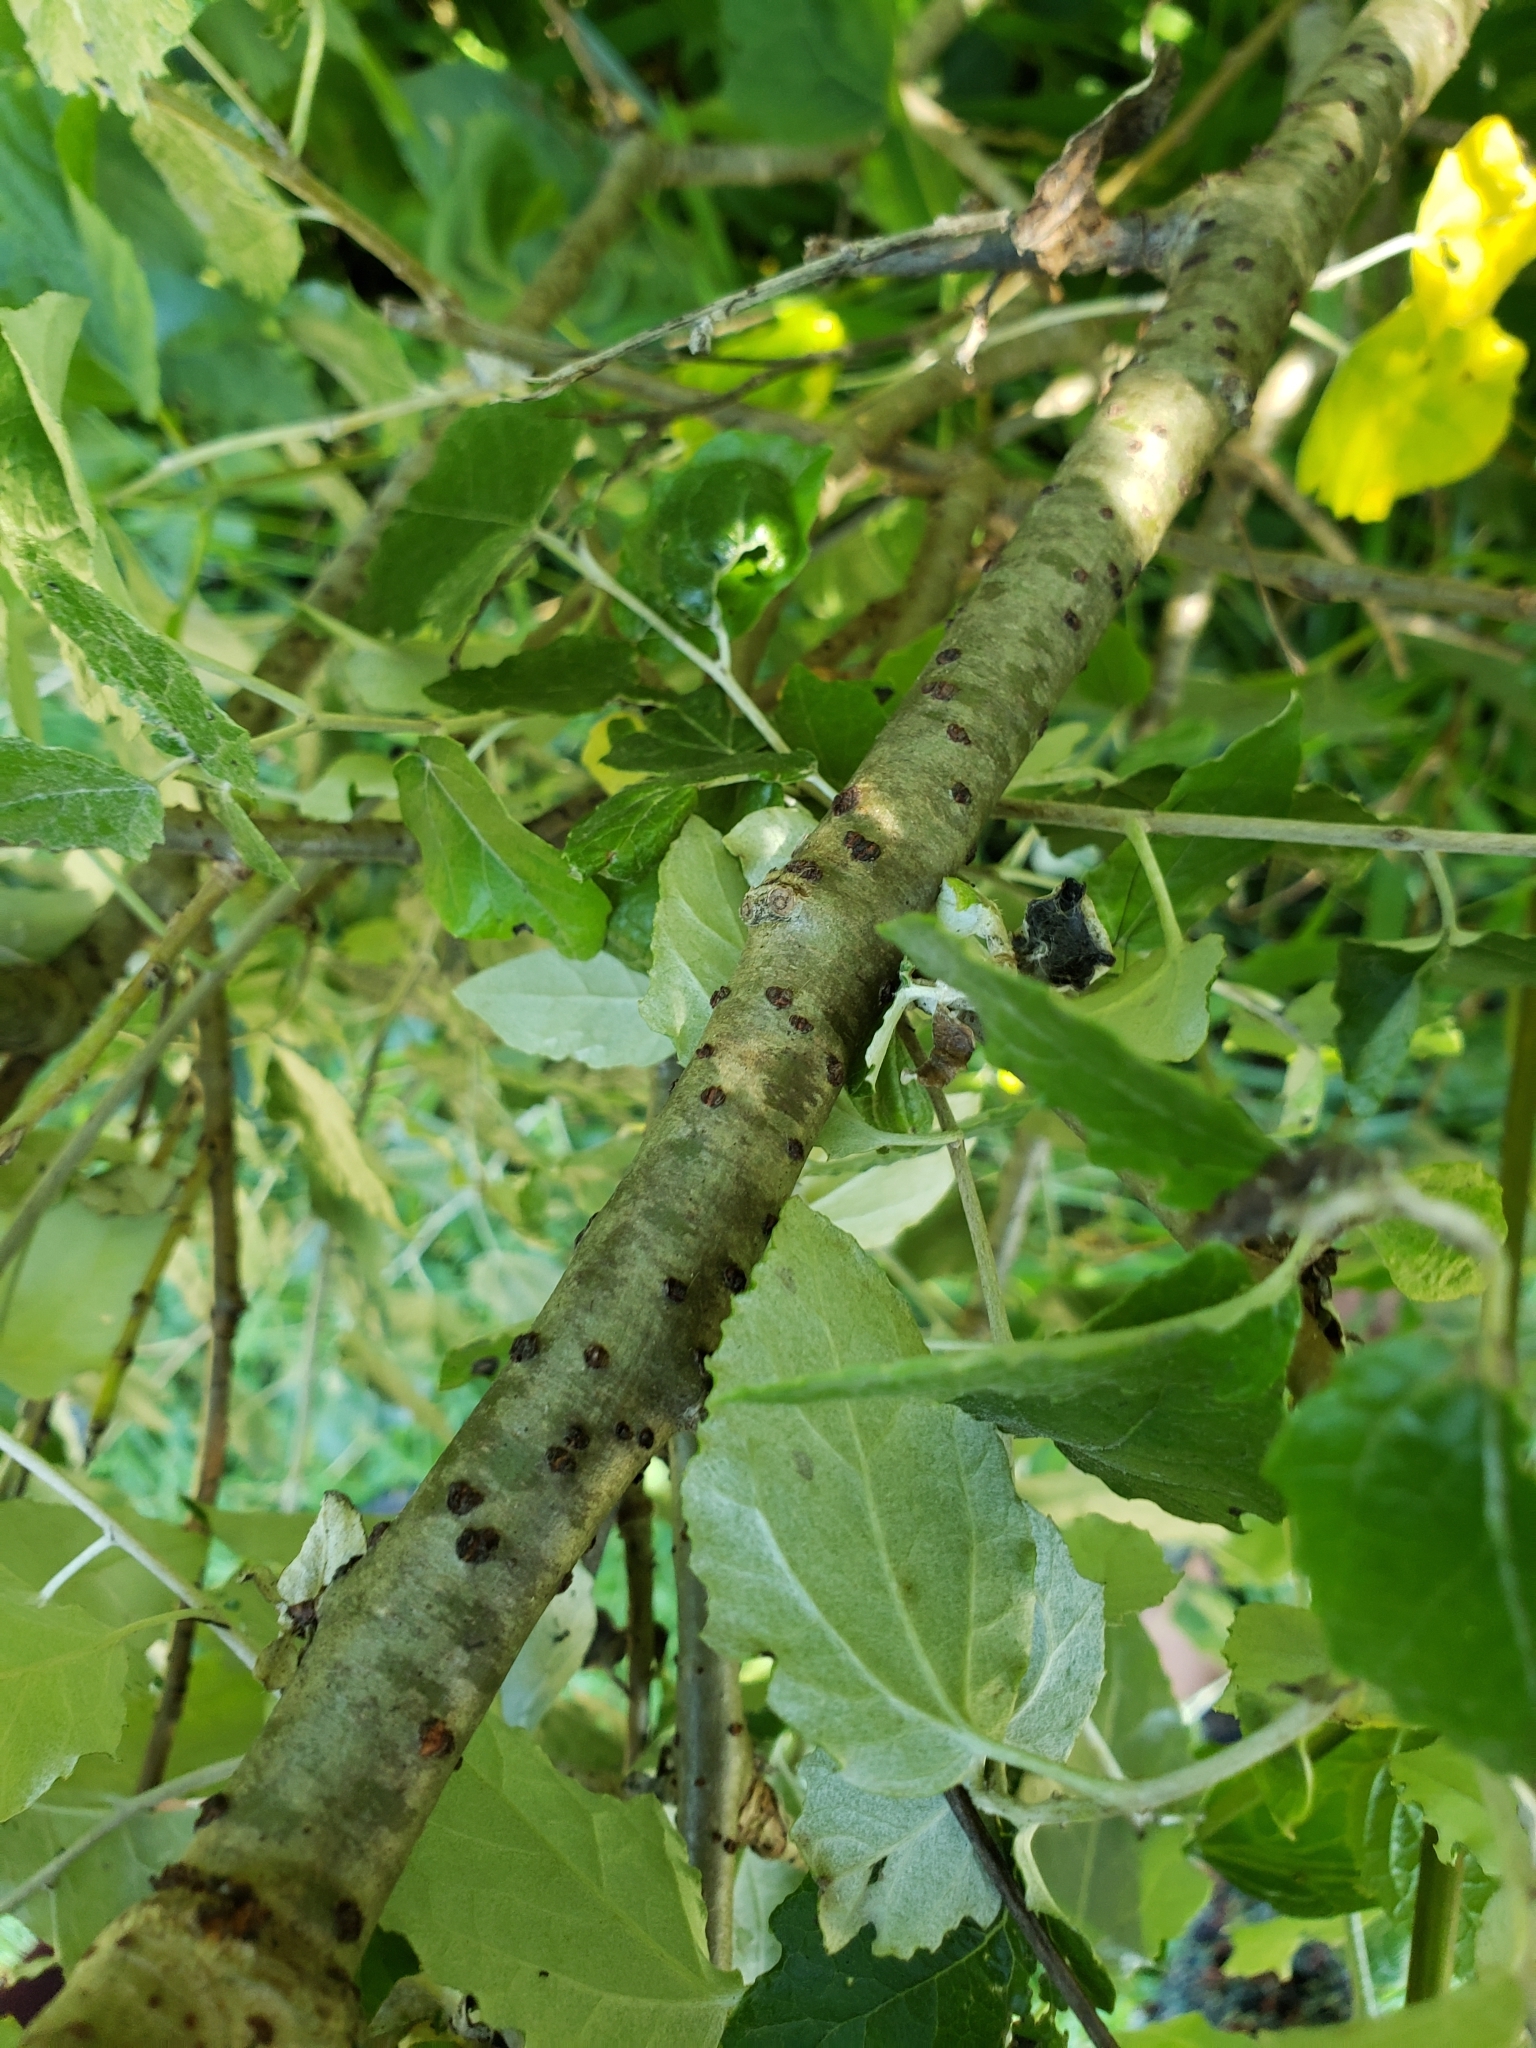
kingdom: Plantae
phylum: Tracheophyta
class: Magnoliopsida
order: Malpighiales
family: Salicaceae
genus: Populus
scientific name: Populus alba
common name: White poplar
